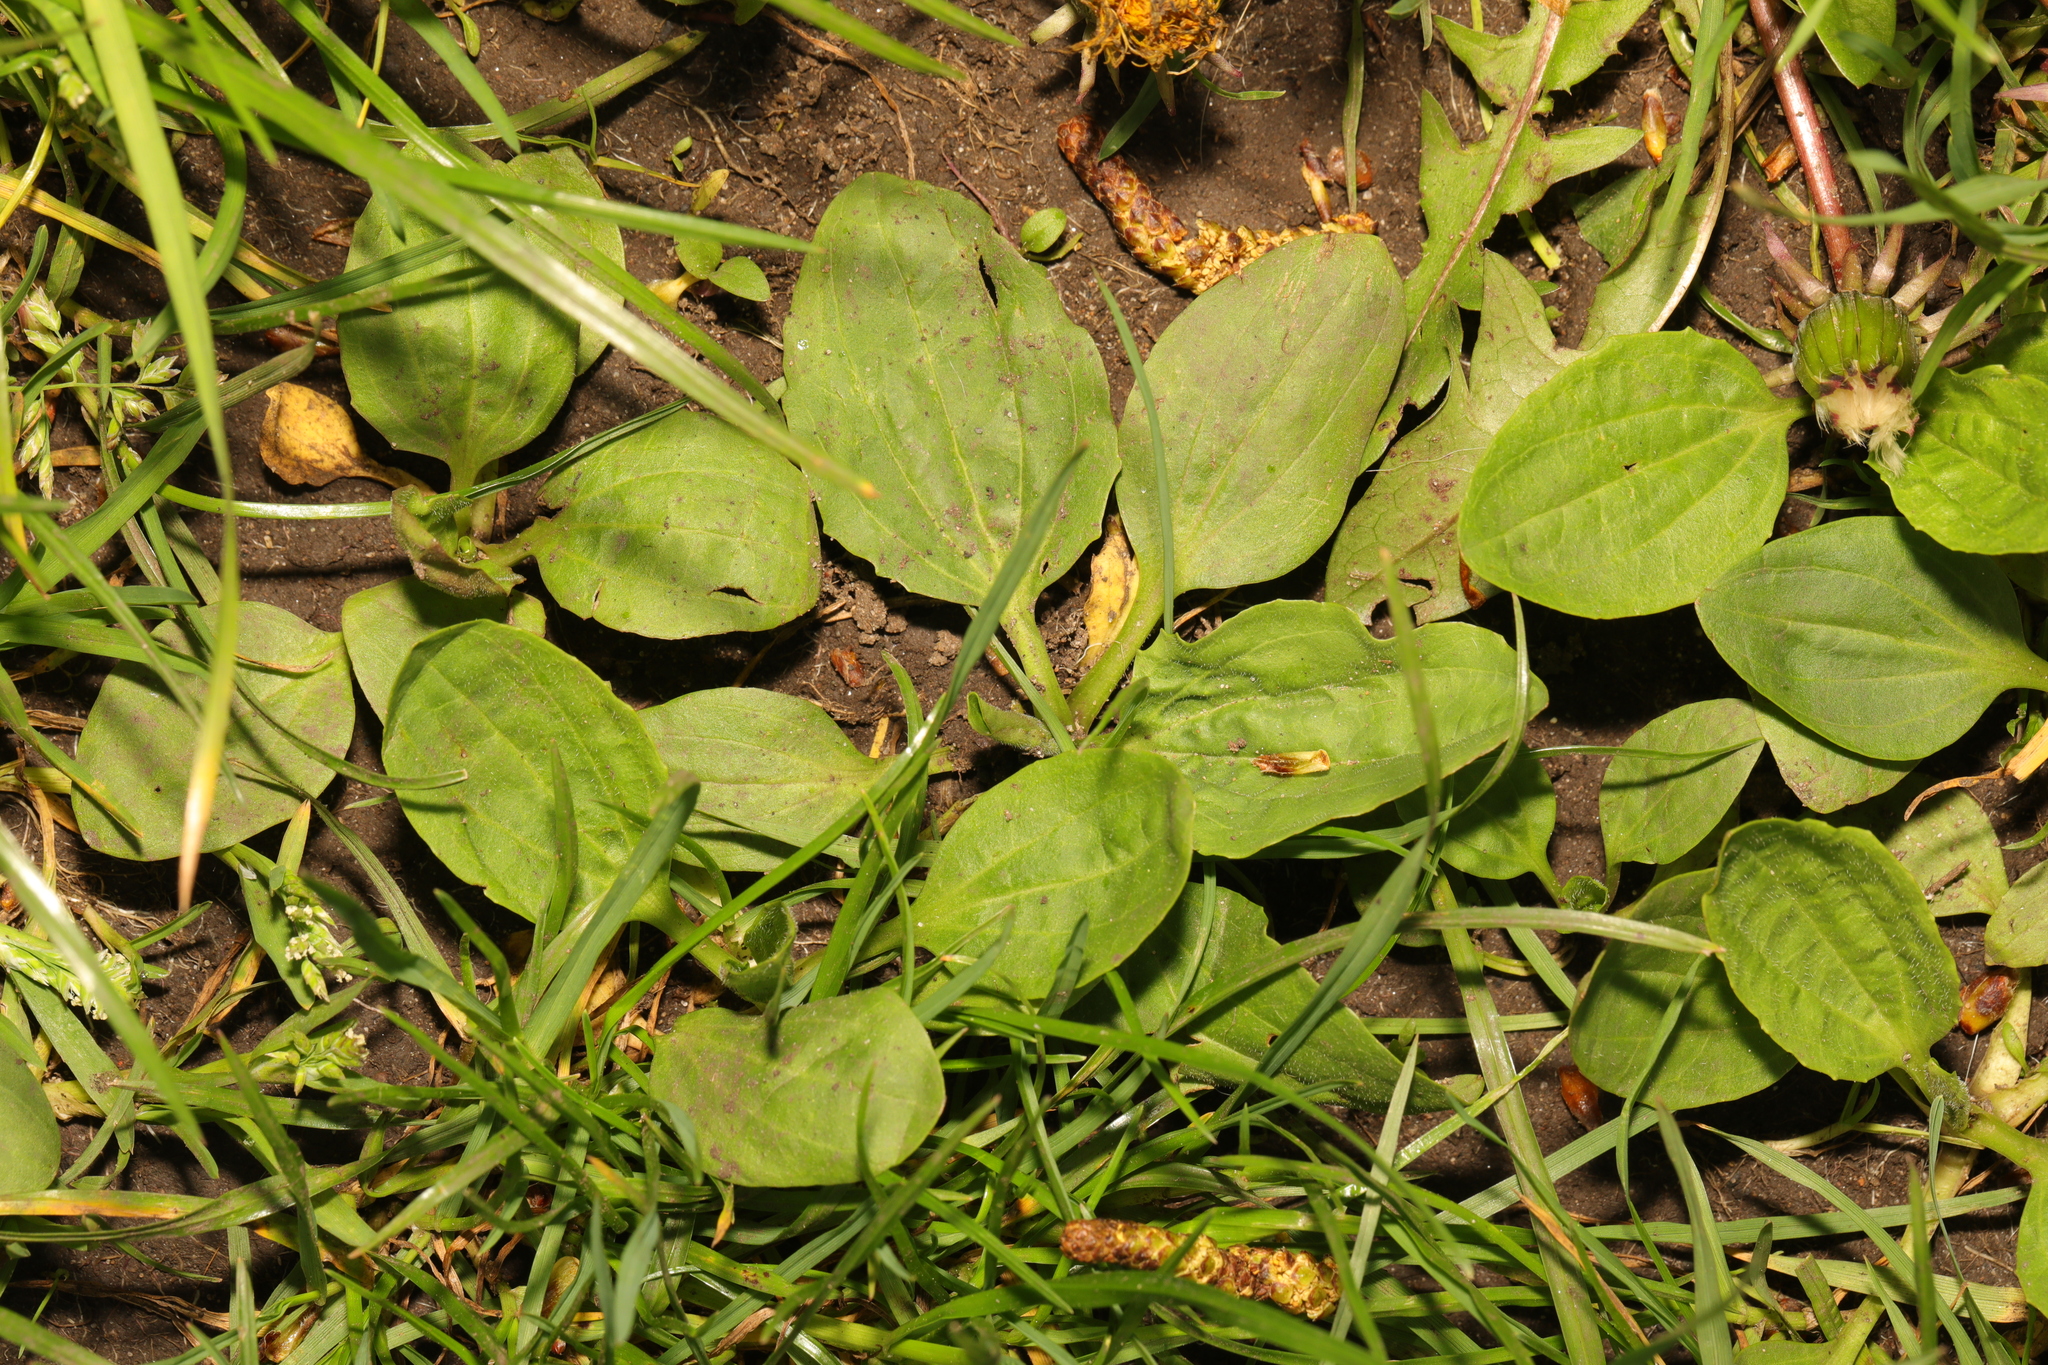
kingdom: Plantae
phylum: Tracheophyta
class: Magnoliopsida
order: Lamiales
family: Plantaginaceae
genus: Plantago
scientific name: Plantago major
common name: Common plantain
